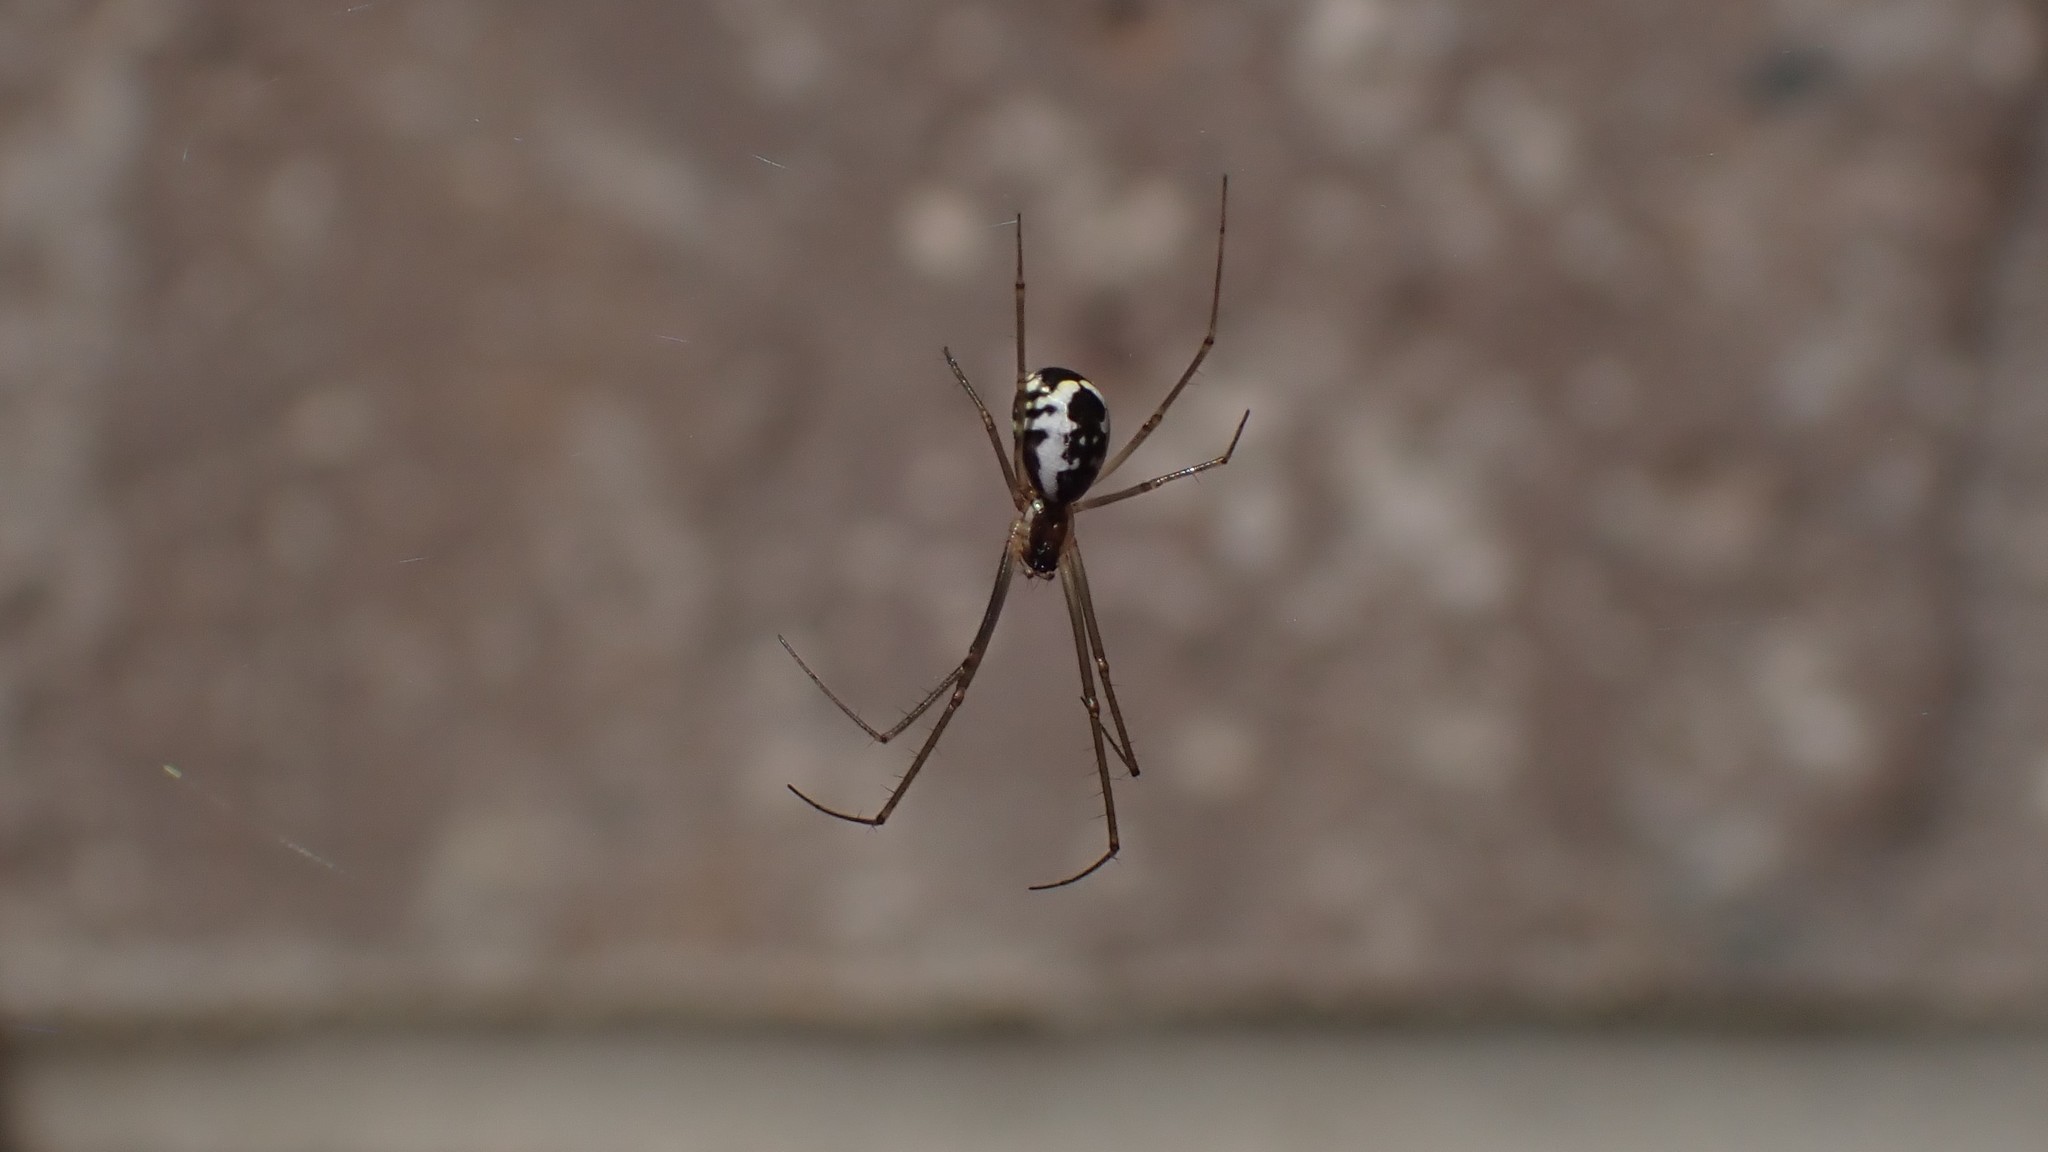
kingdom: Animalia
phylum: Arthropoda
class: Arachnida
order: Araneae
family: Linyphiidae
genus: Neriene
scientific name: Neriene radiata
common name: Filmy dome spider
